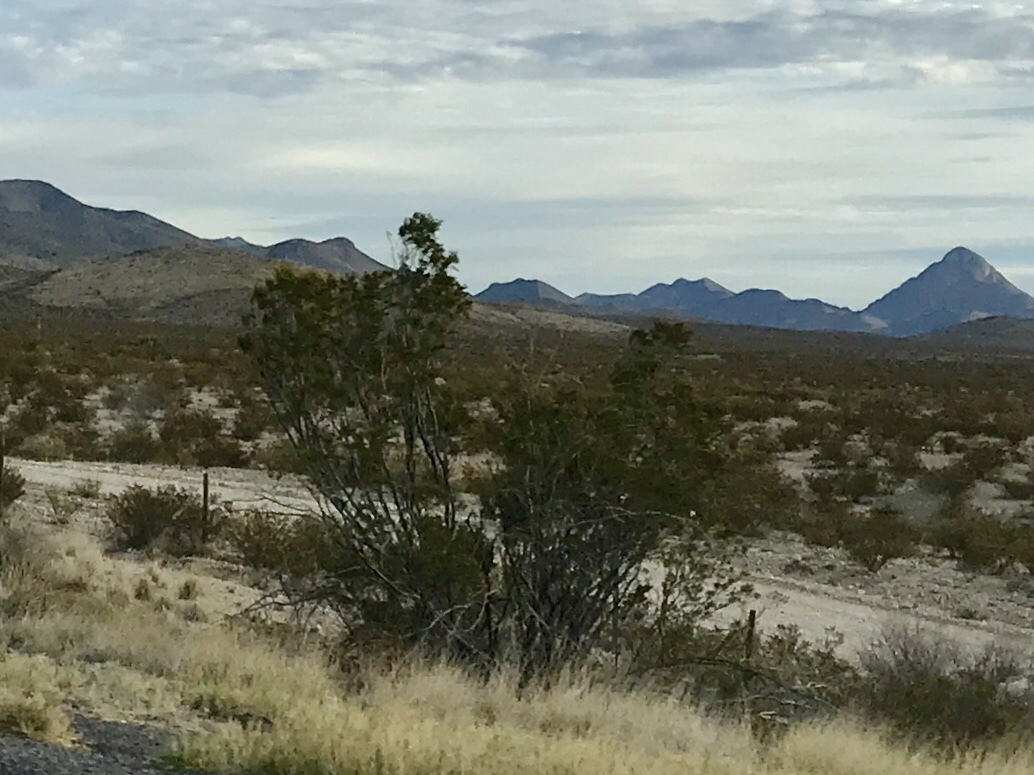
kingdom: Plantae
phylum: Tracheophyta
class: Magnoliopsida
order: Zygophyllales
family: Zygophyllaceae
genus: Larrea
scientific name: Larrea tridentata
